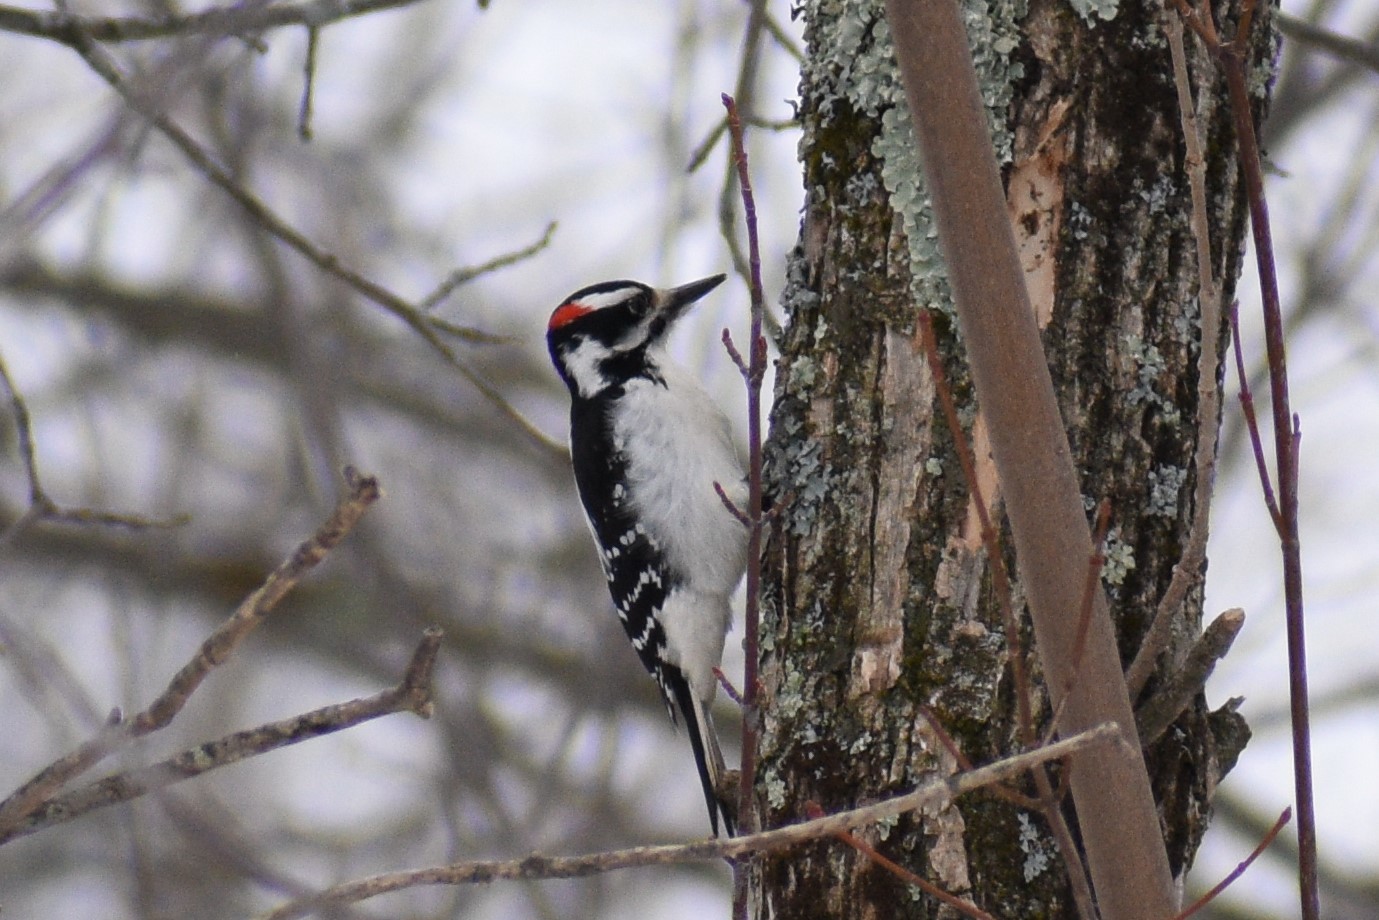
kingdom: Animalia
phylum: Chordata
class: Aves
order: Piciformes
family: Picidae
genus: Leuconotopicus
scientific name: Leuconotopicus villosus
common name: Hairy woodpecker
